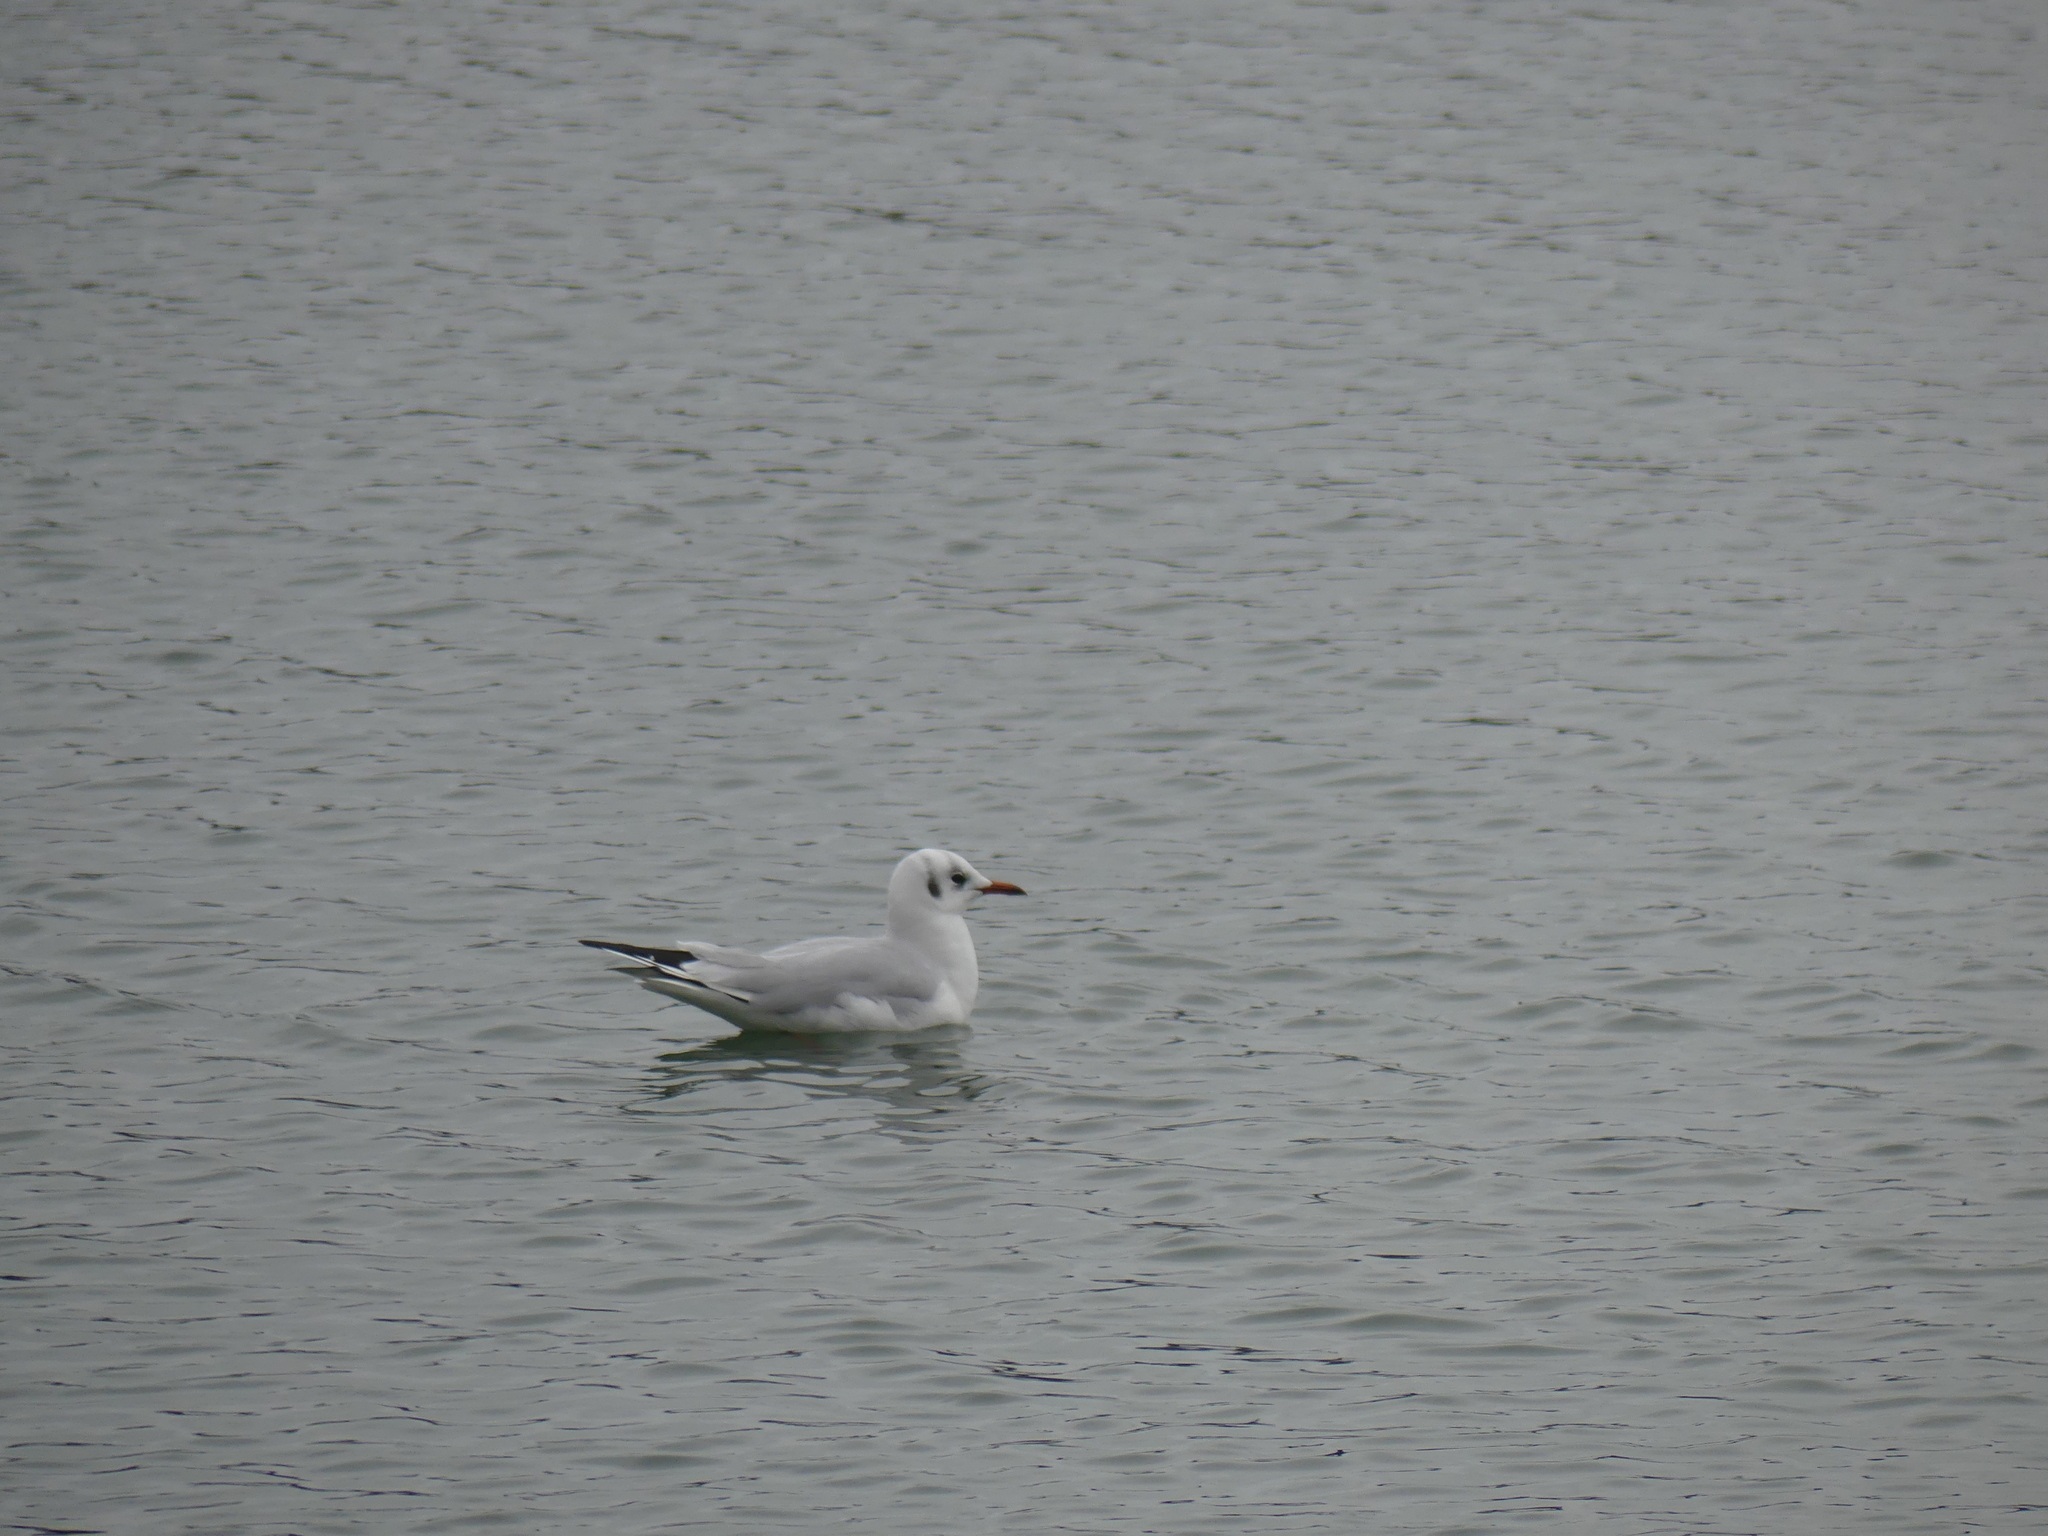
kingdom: Animalia
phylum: Chordata
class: Aves
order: Charadriiformes
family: Laridae
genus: Chroicocephalus
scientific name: Chroicocephalus ridibundus
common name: Black-headed gull
